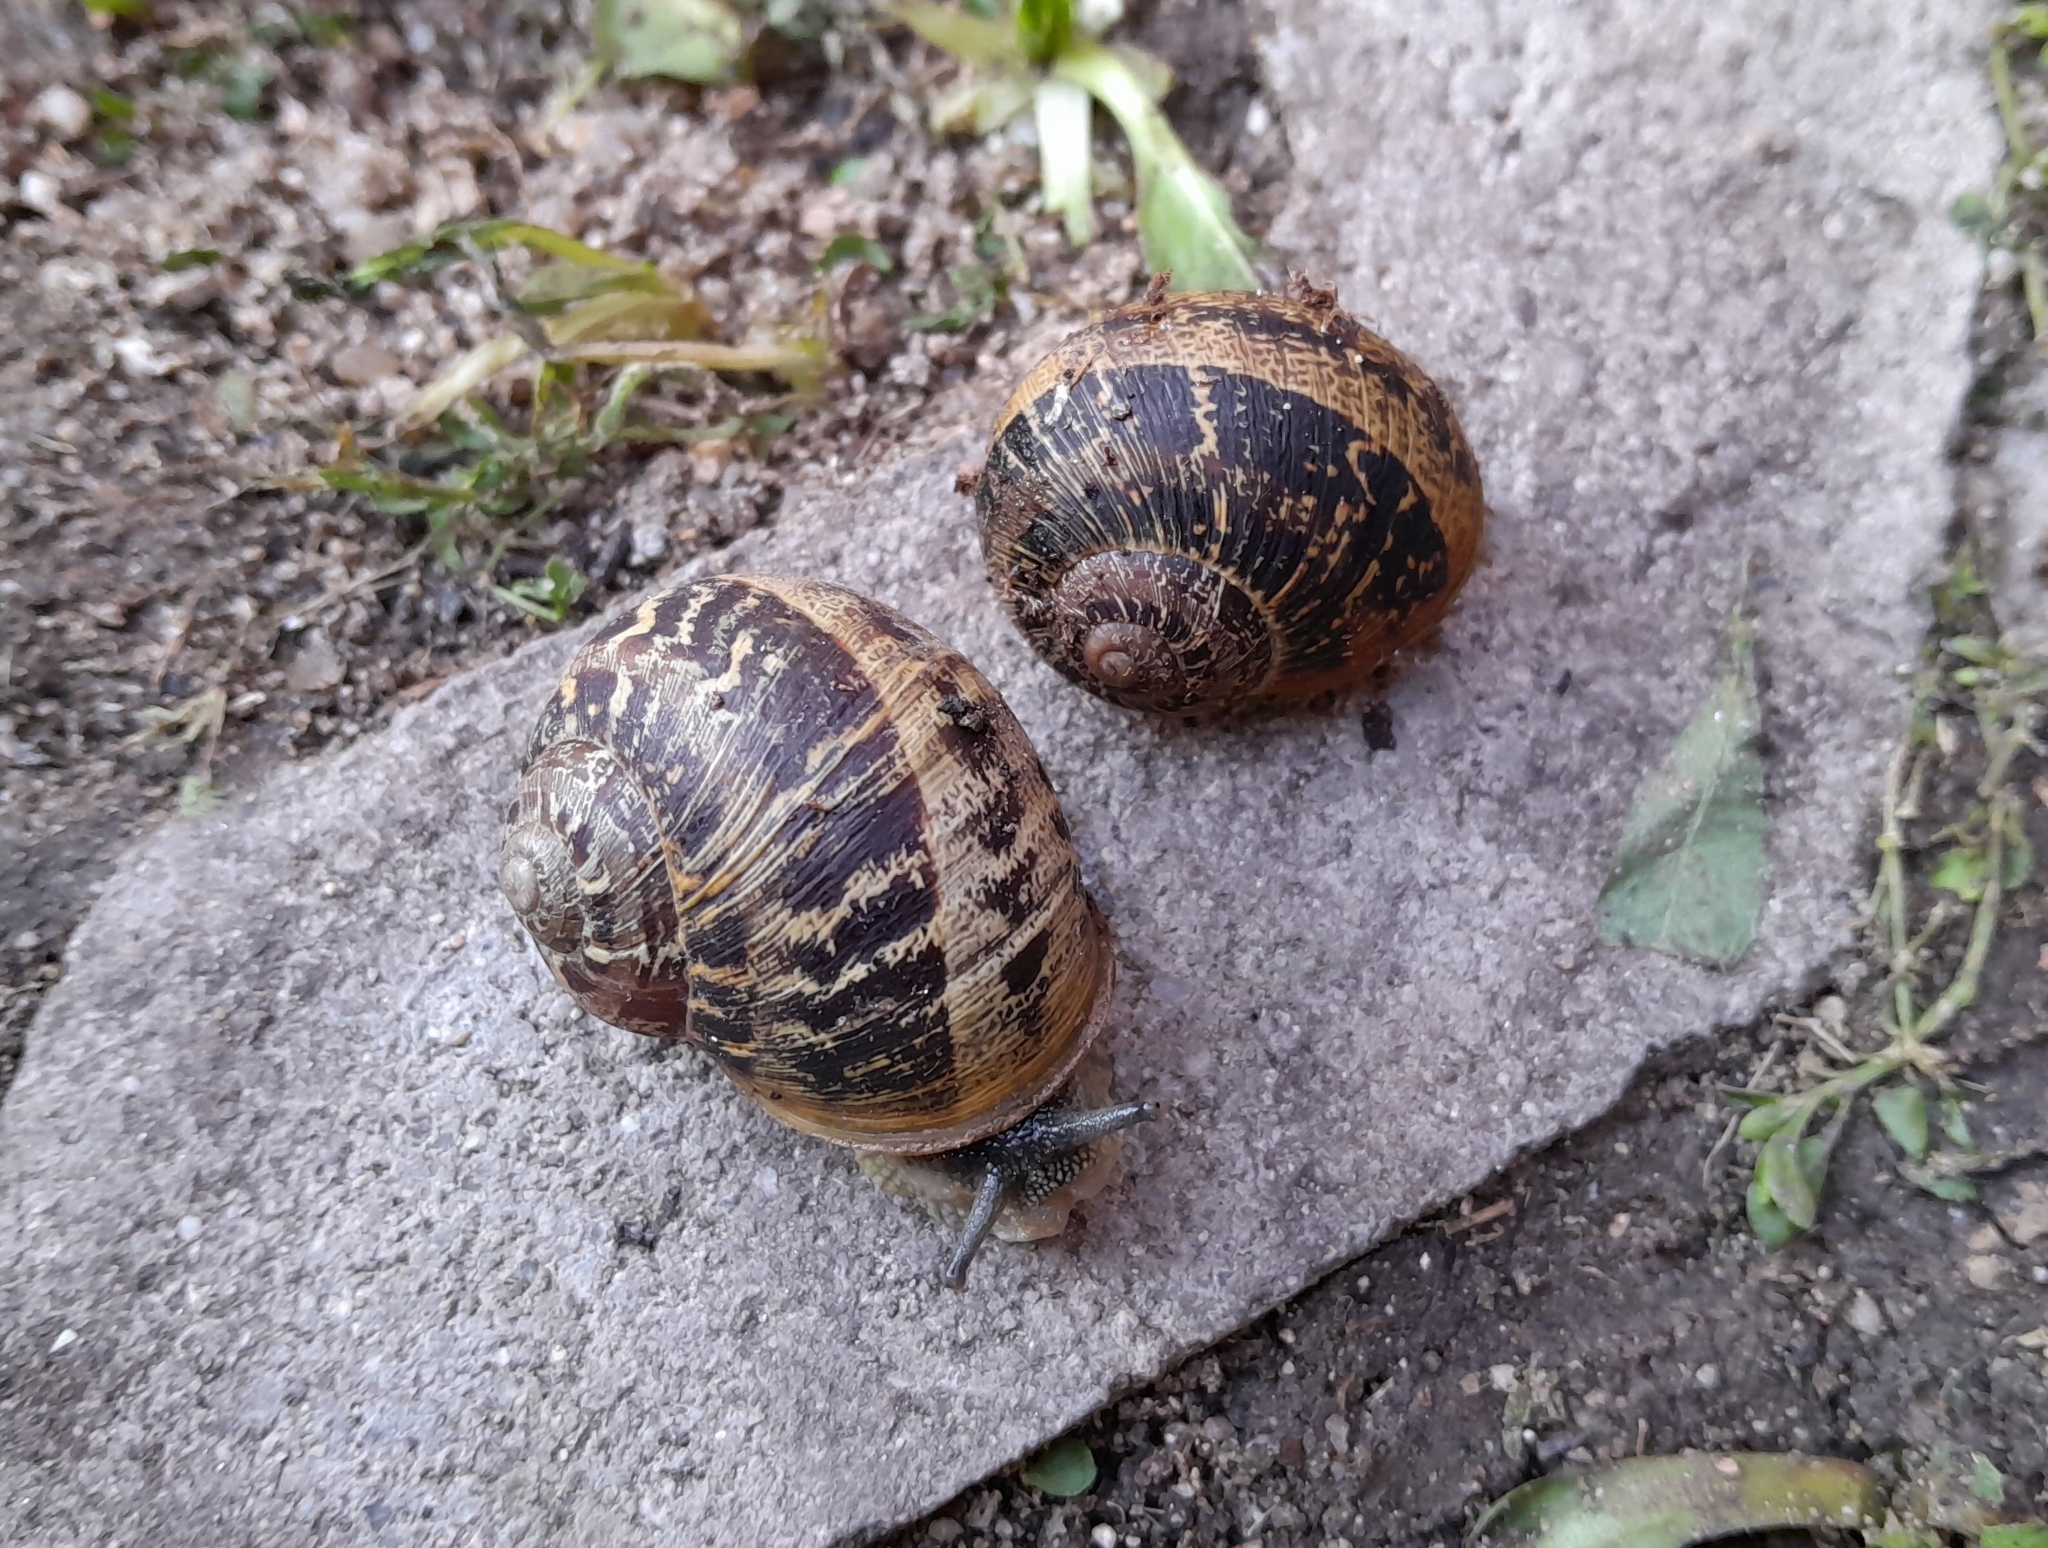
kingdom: Animalia
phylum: Mollusca
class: Gastropoda
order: Stylommatophora
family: Helicidae
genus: Cornu
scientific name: Cornu aspersum
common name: Brown garden snail
